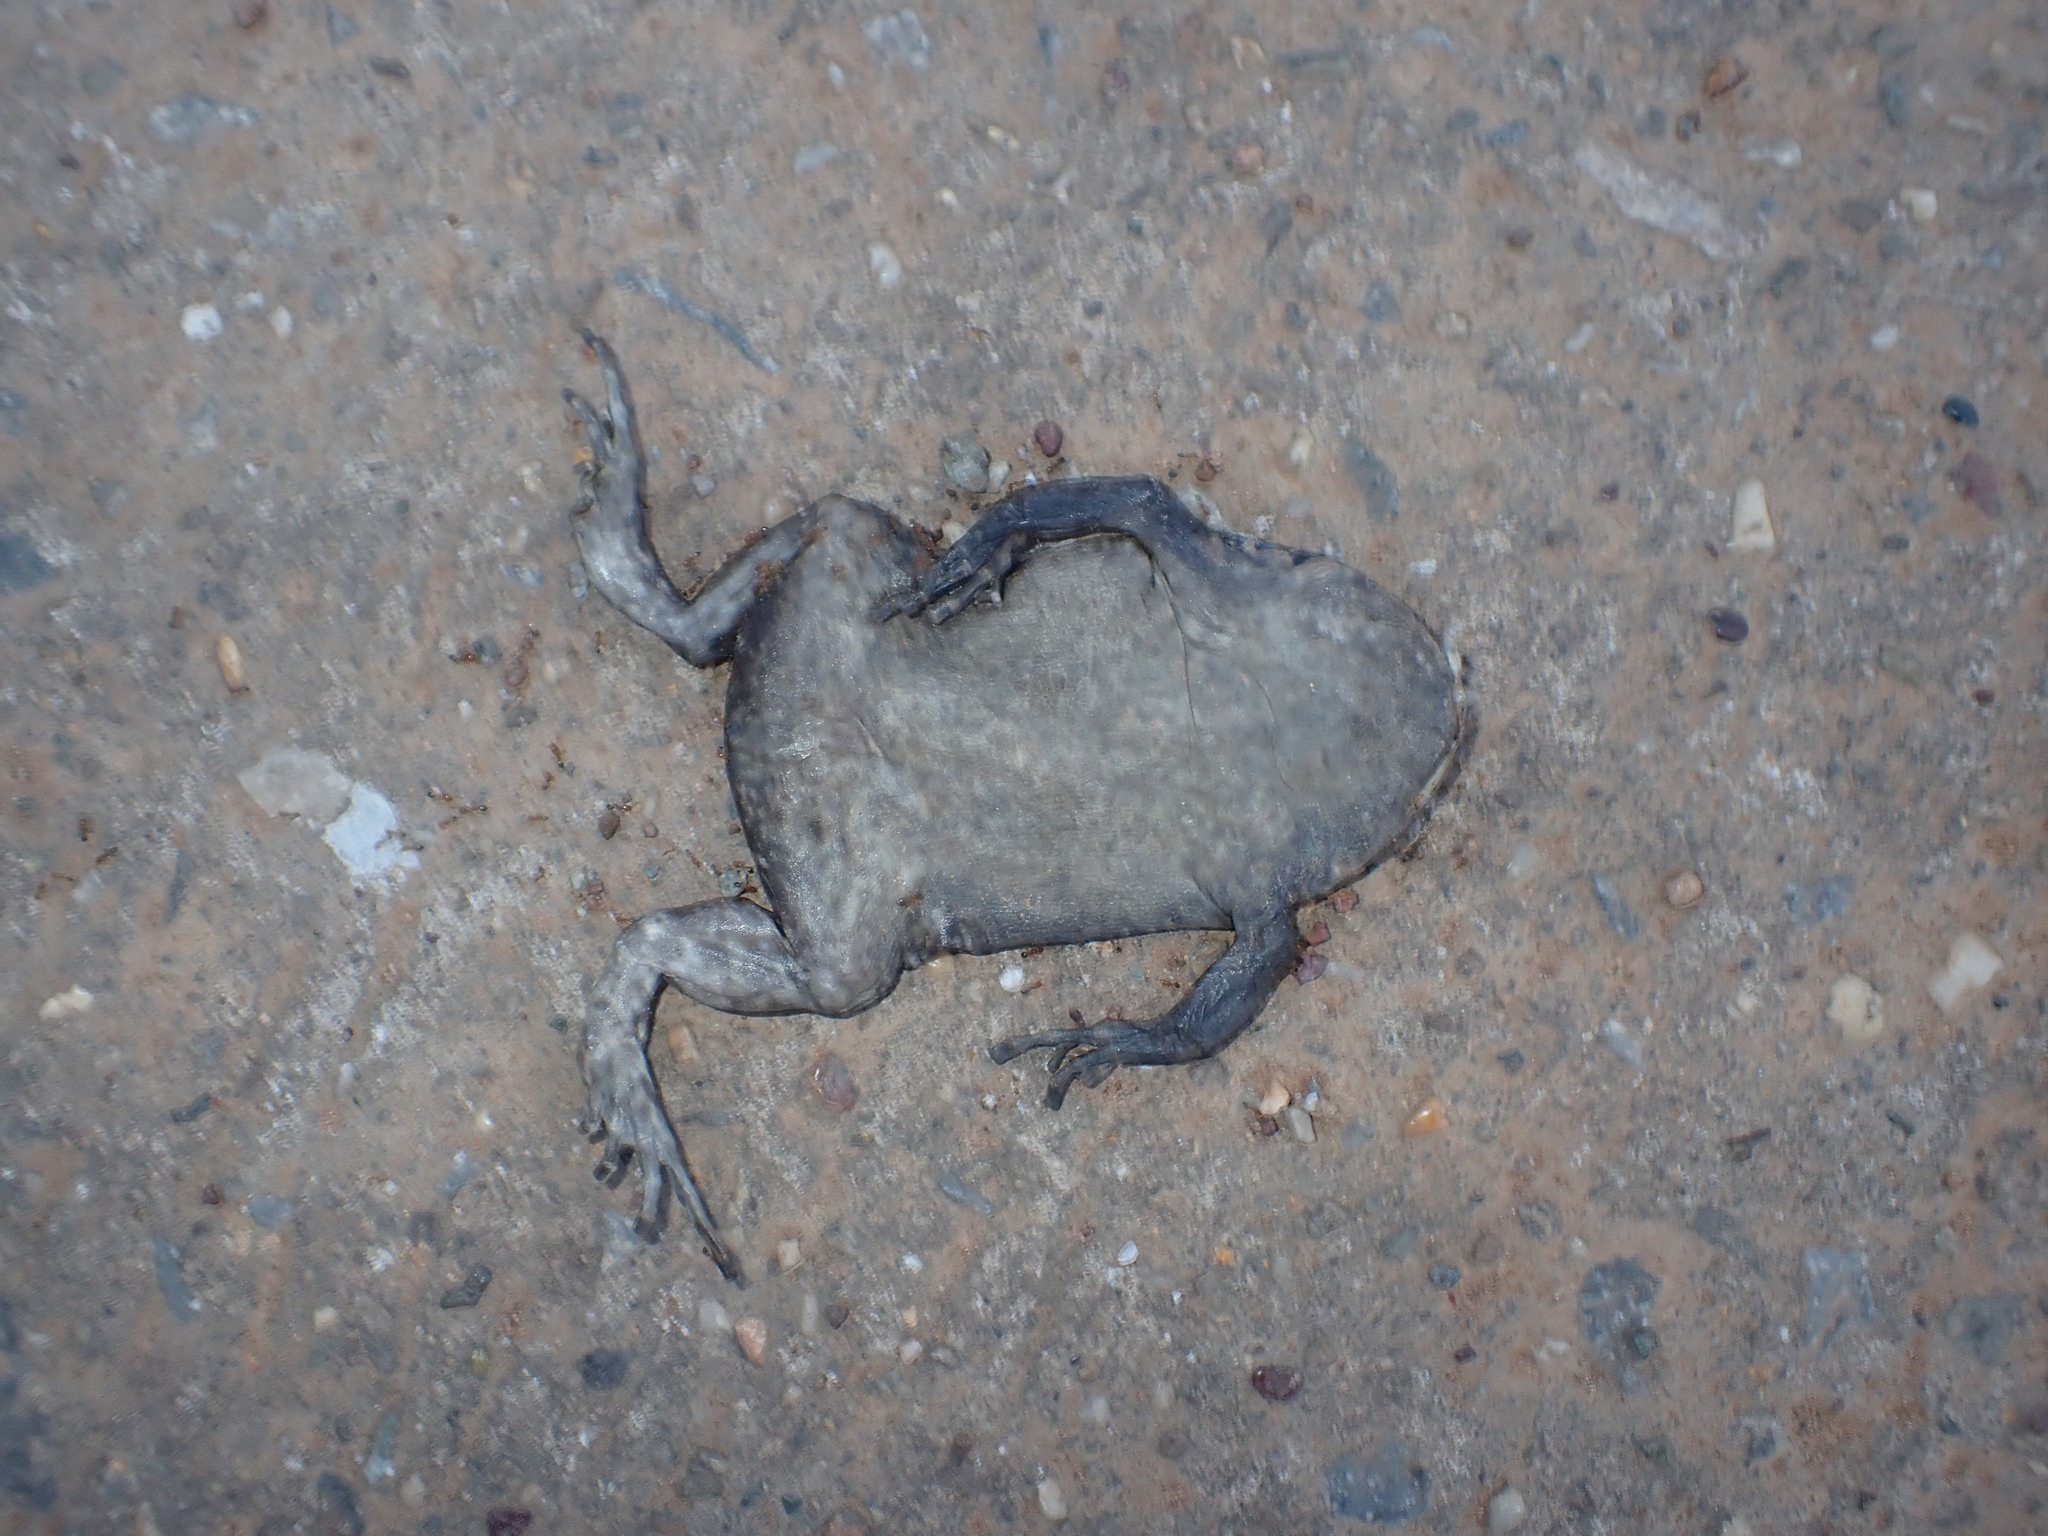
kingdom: Animalia
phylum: Chordata
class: Amphibia
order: Anura
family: Bufonidae
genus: Duttaphrynus
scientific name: Duttaphrynus melanostictus
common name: Common sunda toad
